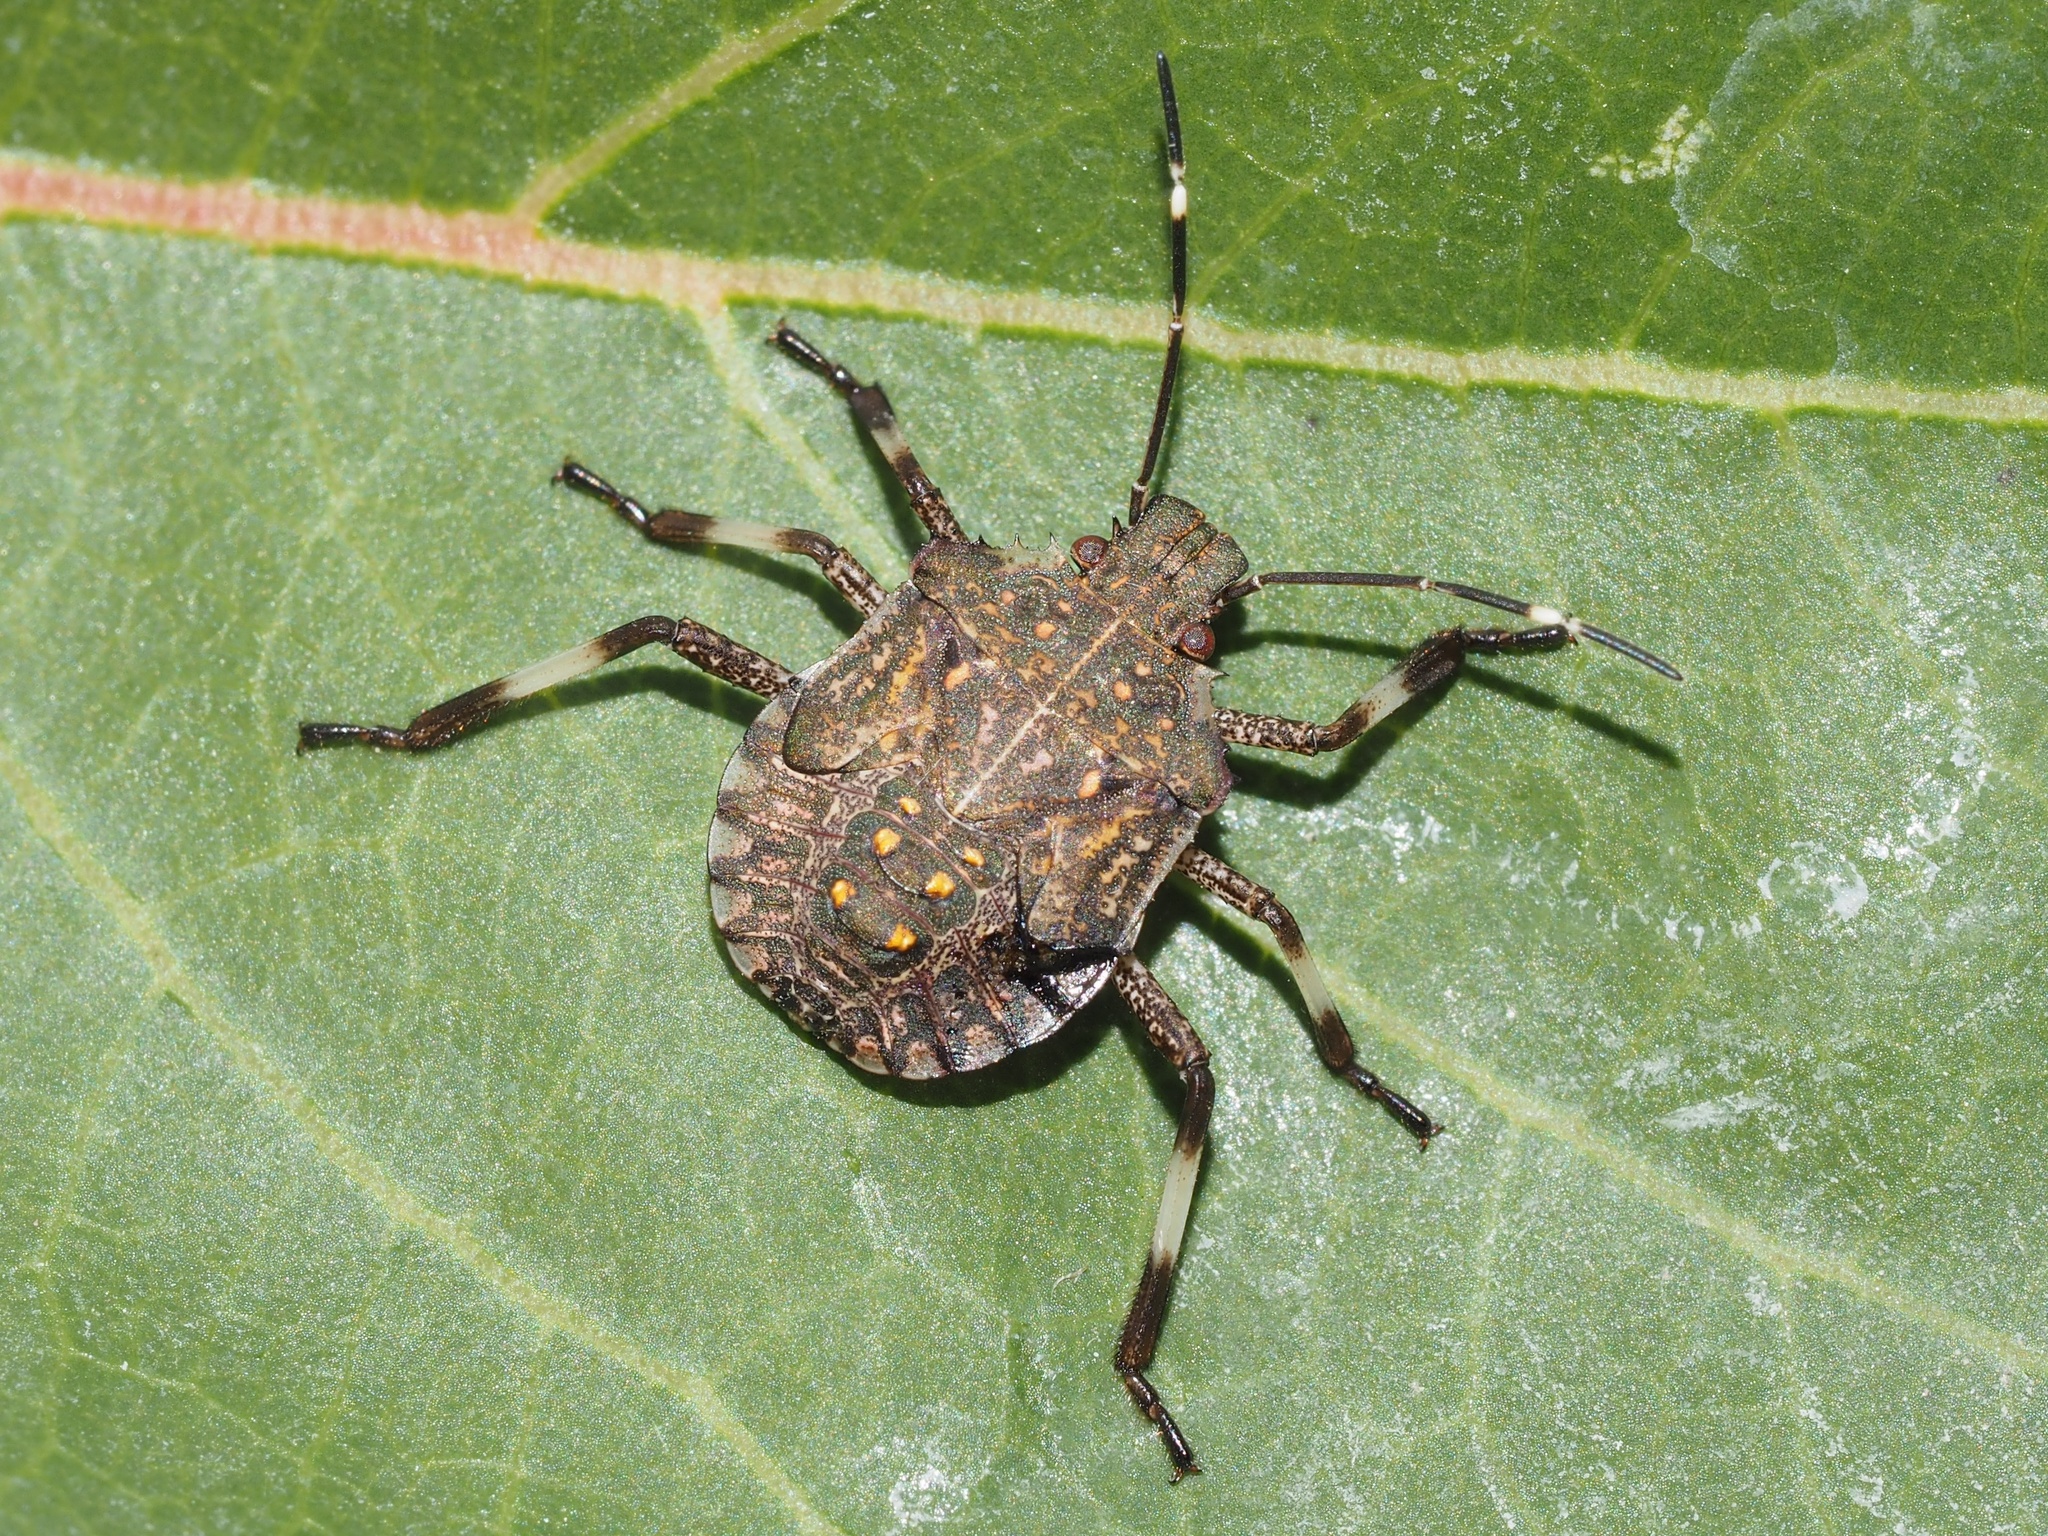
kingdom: Animalia
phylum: Arthropoda
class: Insecta
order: Hemiptera
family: Pentatomidae
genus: Halyomorpha
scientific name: Halyomorpha halys
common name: Brown marmorated stink bug
